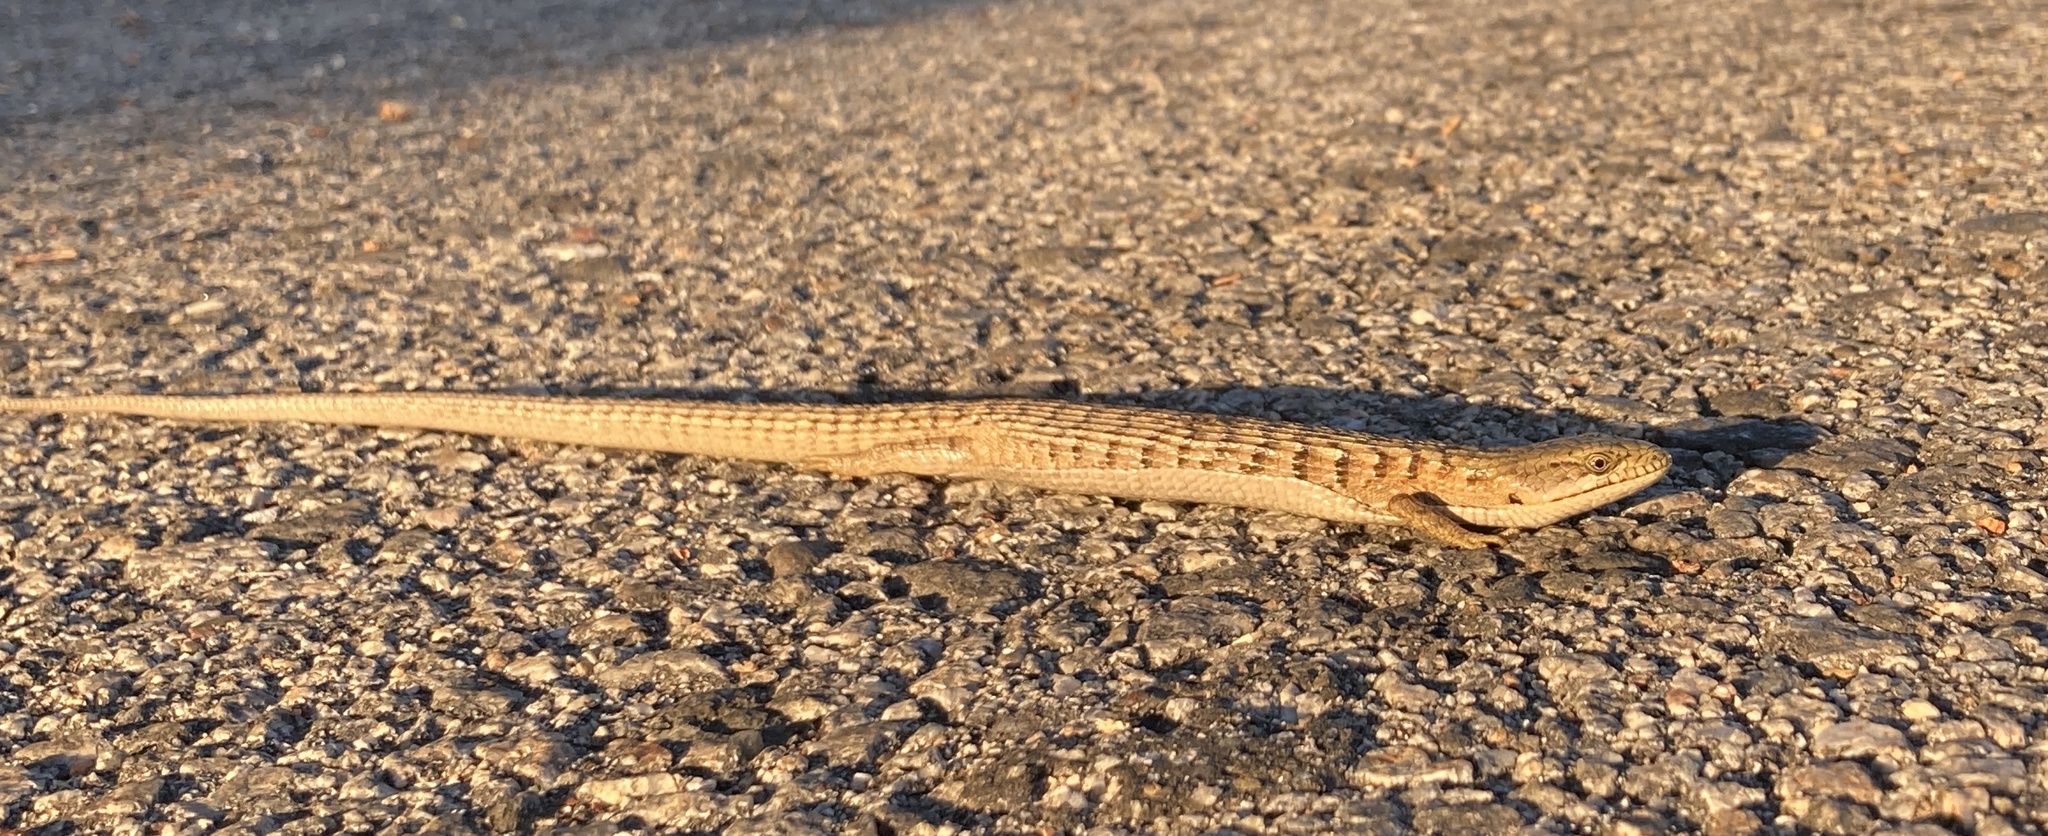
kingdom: Animalia
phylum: Chordata
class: Squamata
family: Anguidae
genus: Elgaria
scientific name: Elgaria multicarinata
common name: Southern alligator lizard
